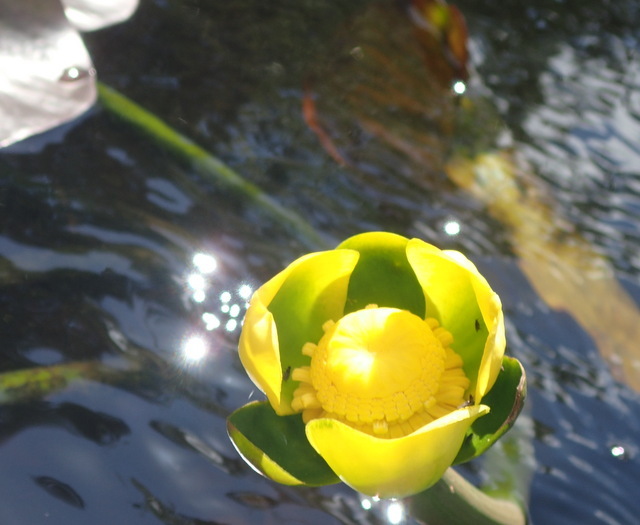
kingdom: Plantae
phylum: Tracheophyta
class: Magnoliopsida
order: Nymphaeales
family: Nymphaeaceae
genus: Nuphar
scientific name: Nuphar advena
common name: Spatter-dock
